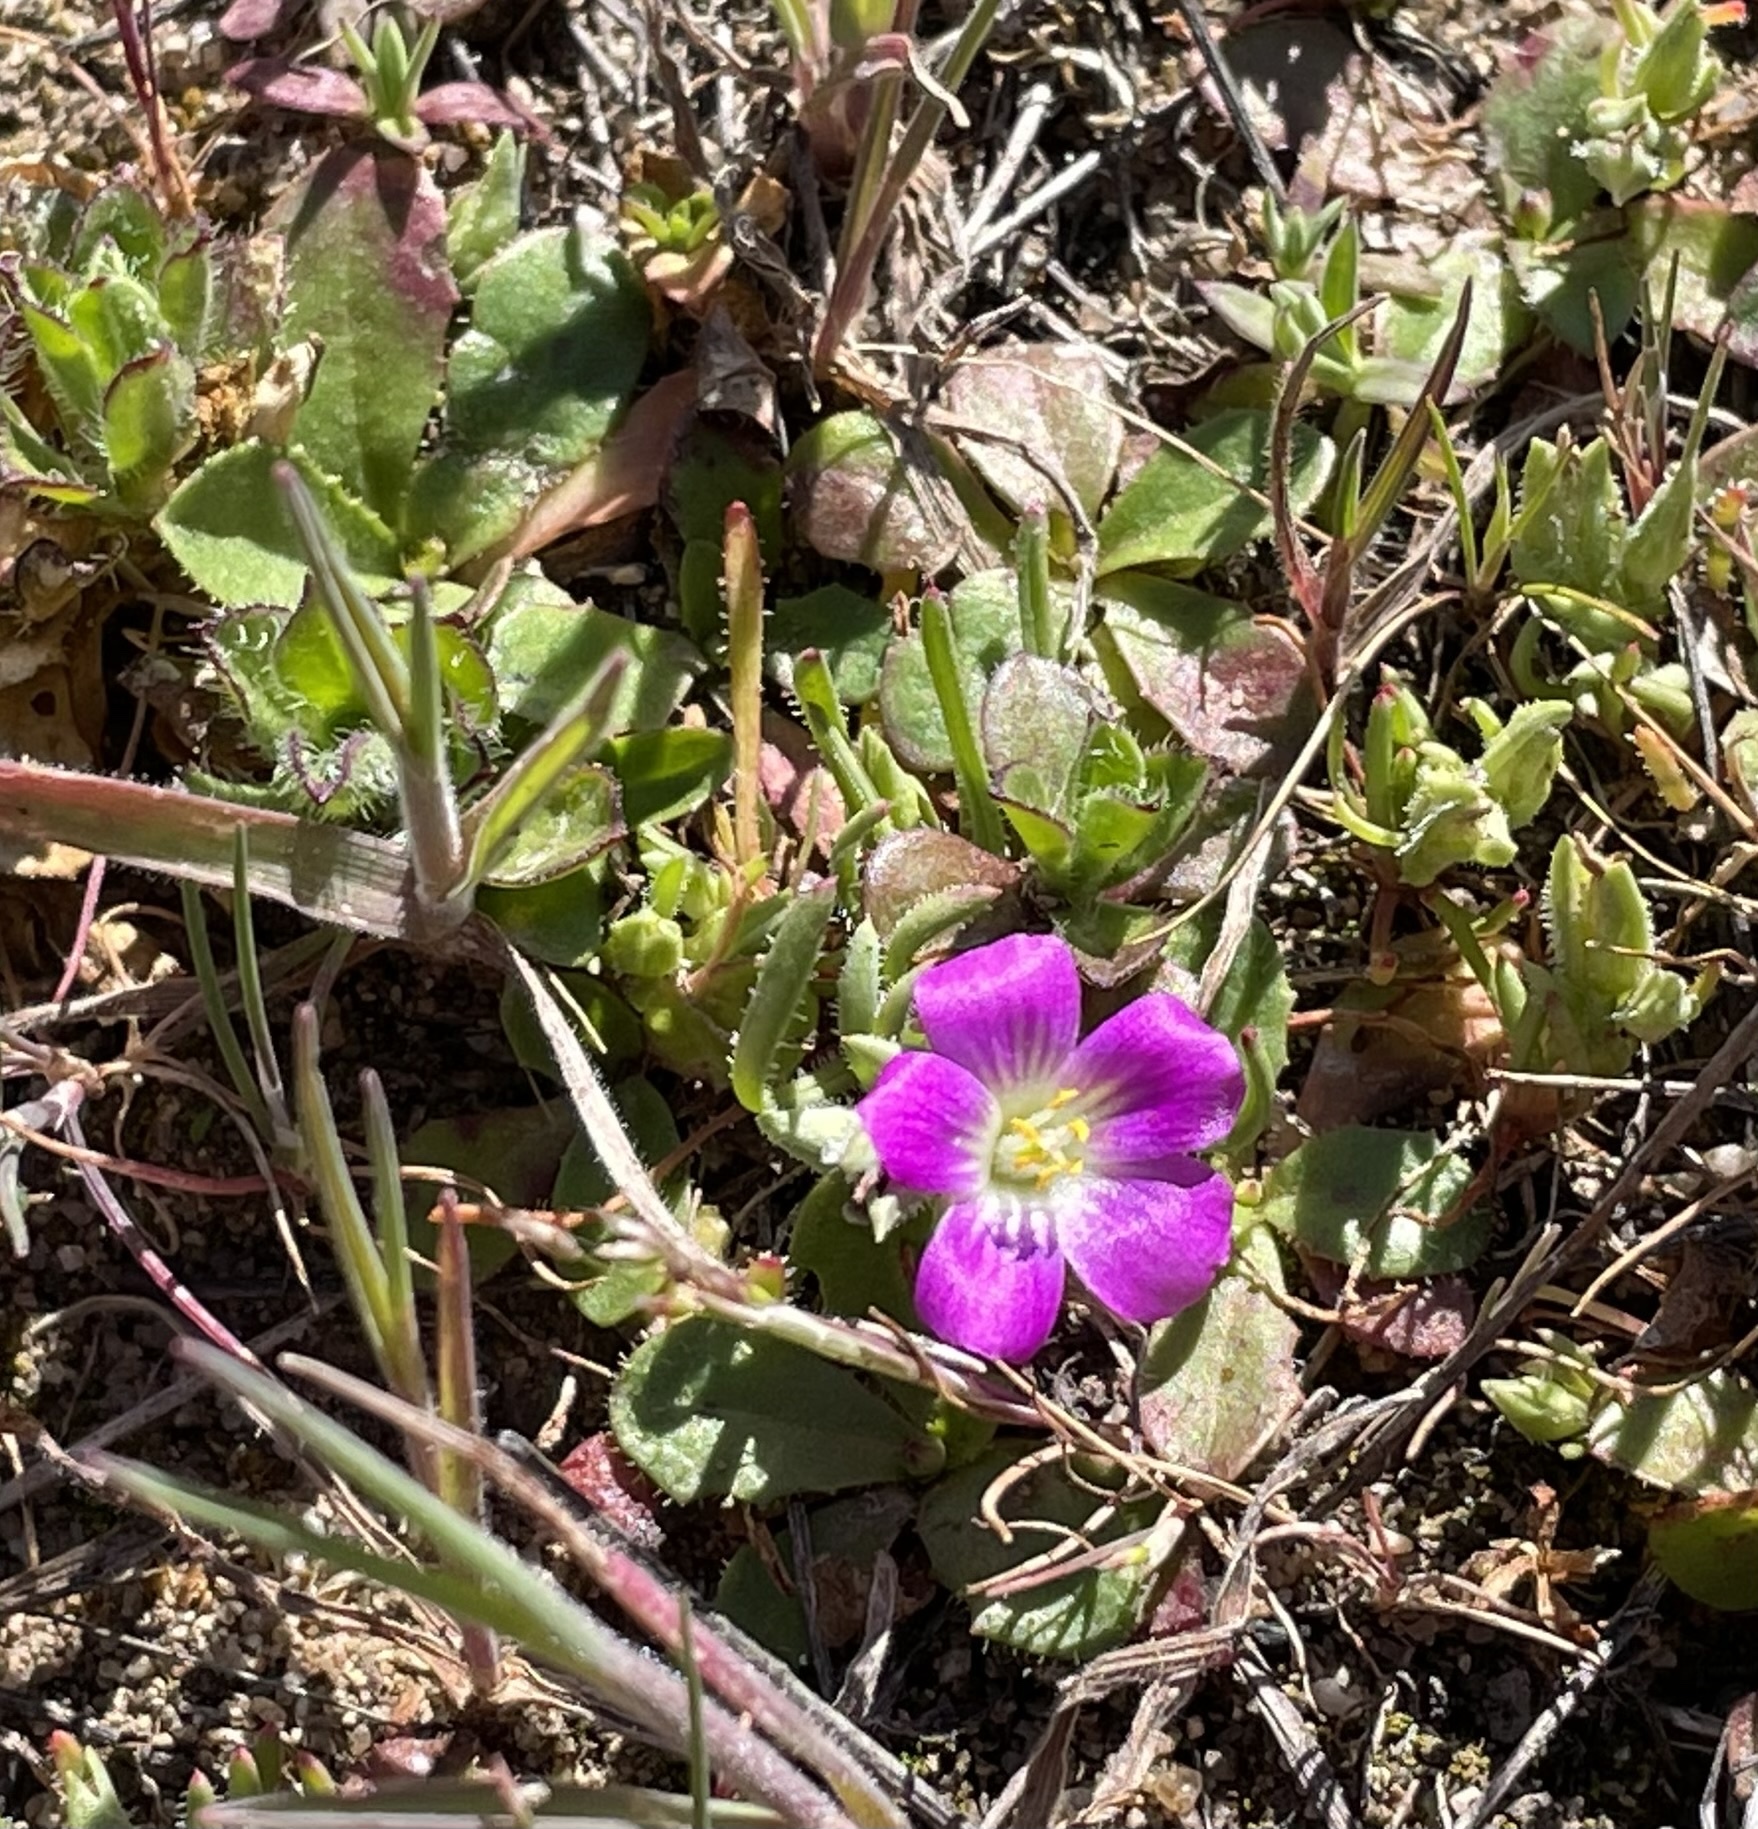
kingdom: Plantae
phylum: Tracheophyta
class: Magnoliopsida
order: Caryophyllales
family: Montiaceae
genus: Calandrinia
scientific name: Calandrinia menziesii
